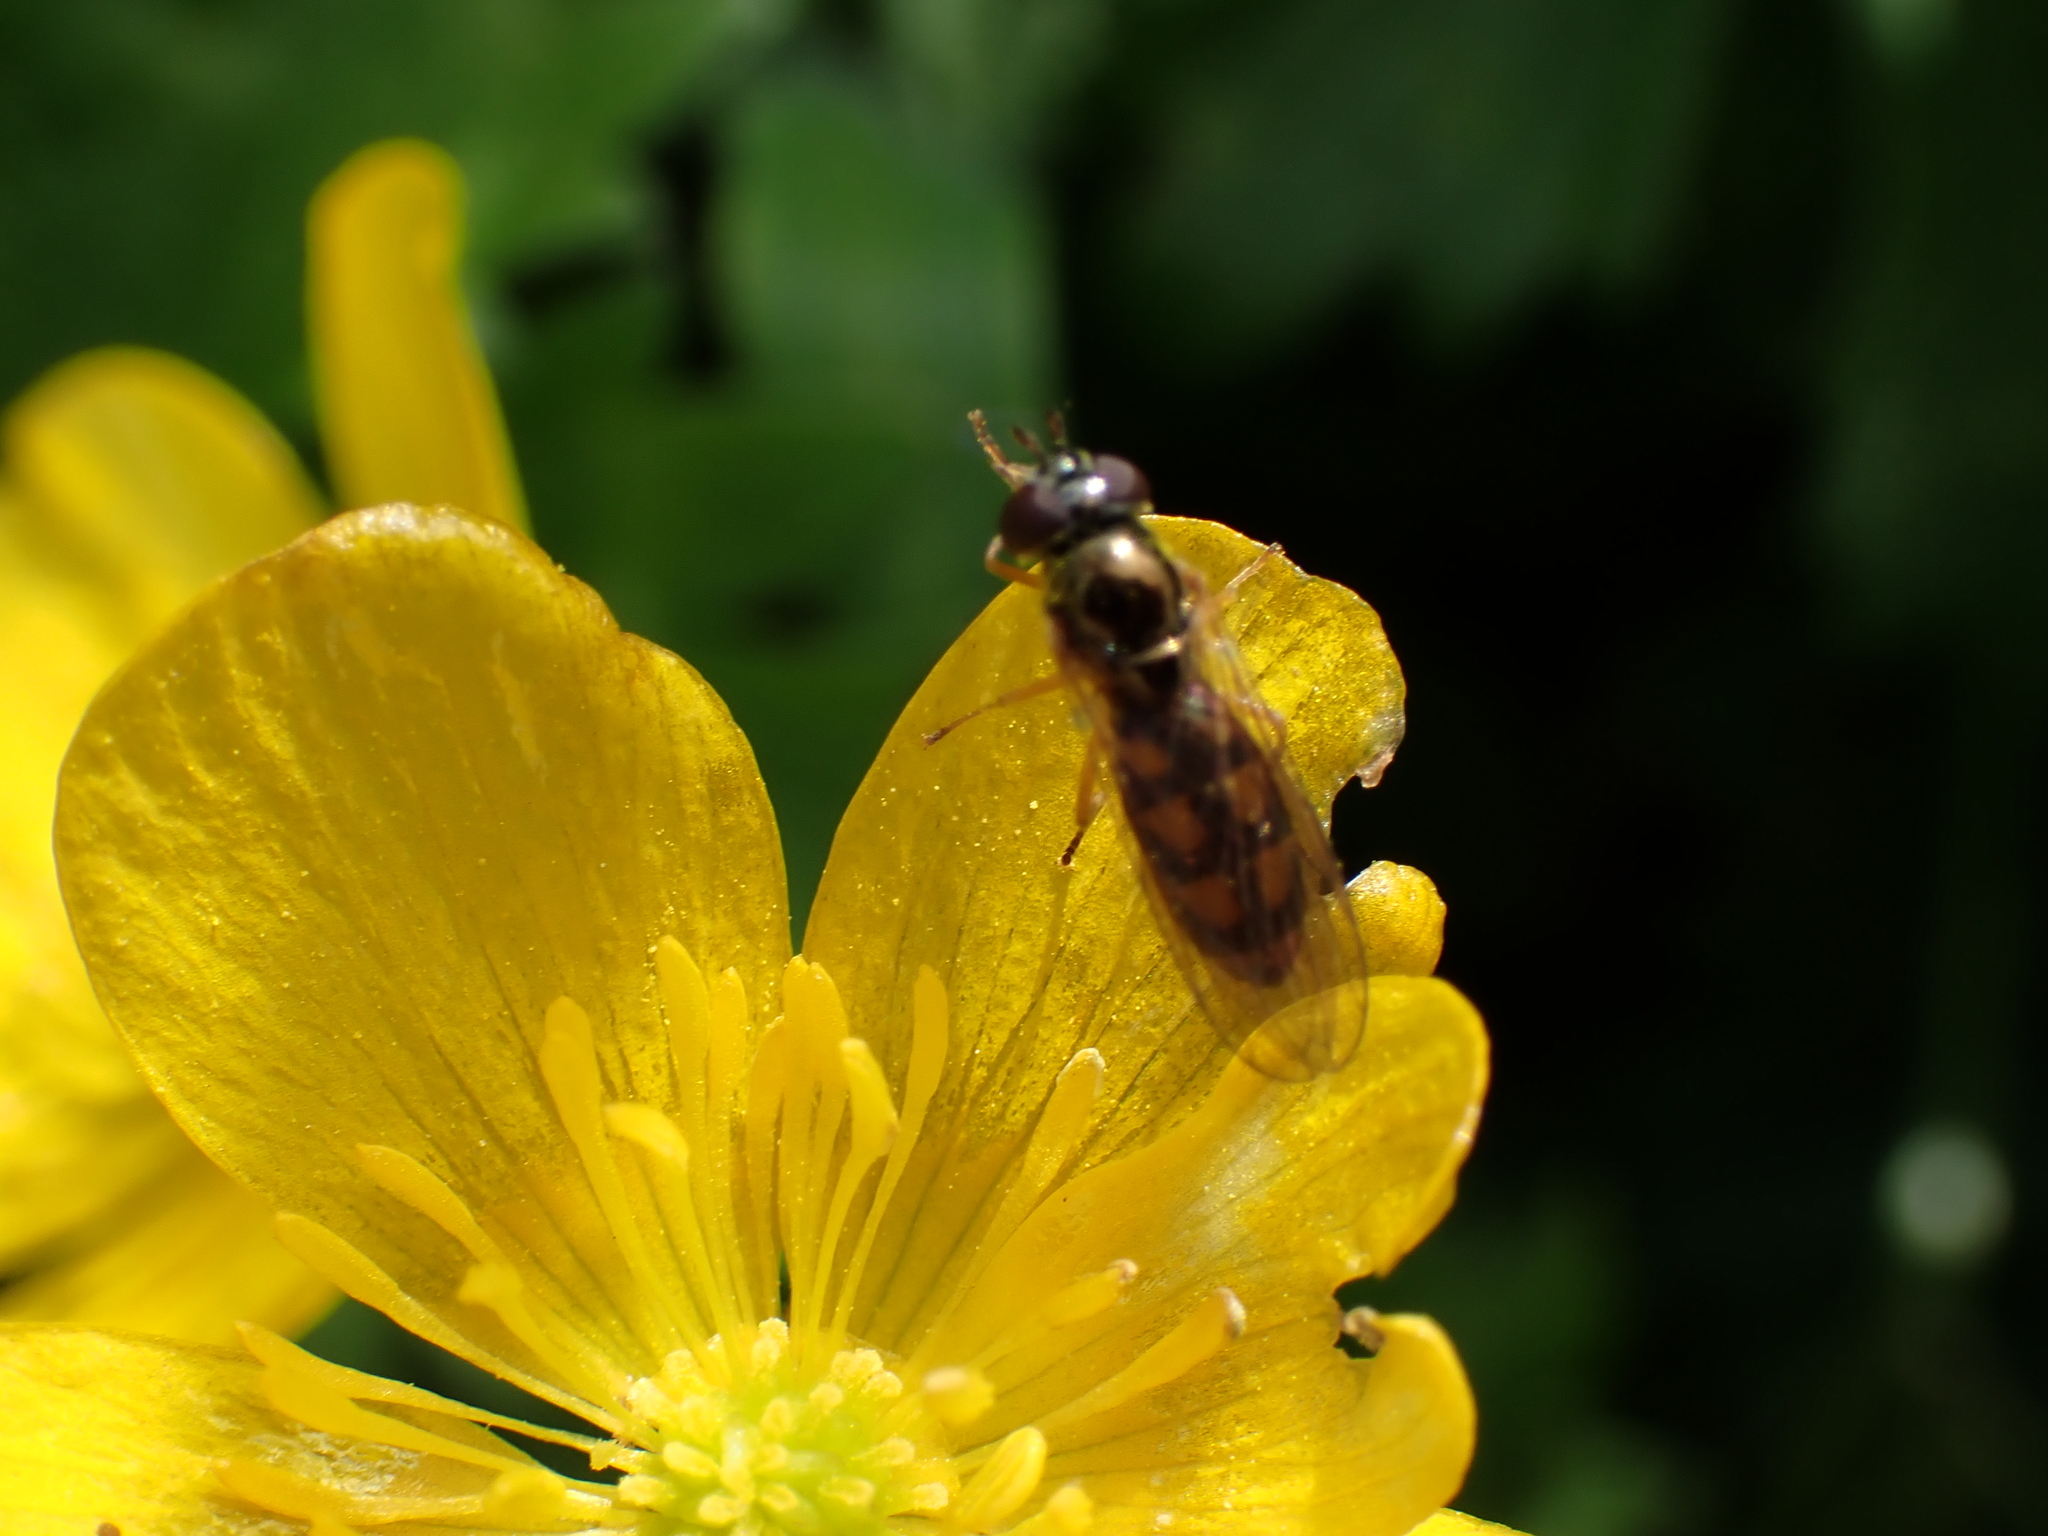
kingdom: Animalia
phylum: Arthropoda
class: Insecta
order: Diptera
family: Syrphidae
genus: Melanostoma
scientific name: Melanostoma fasciatum
